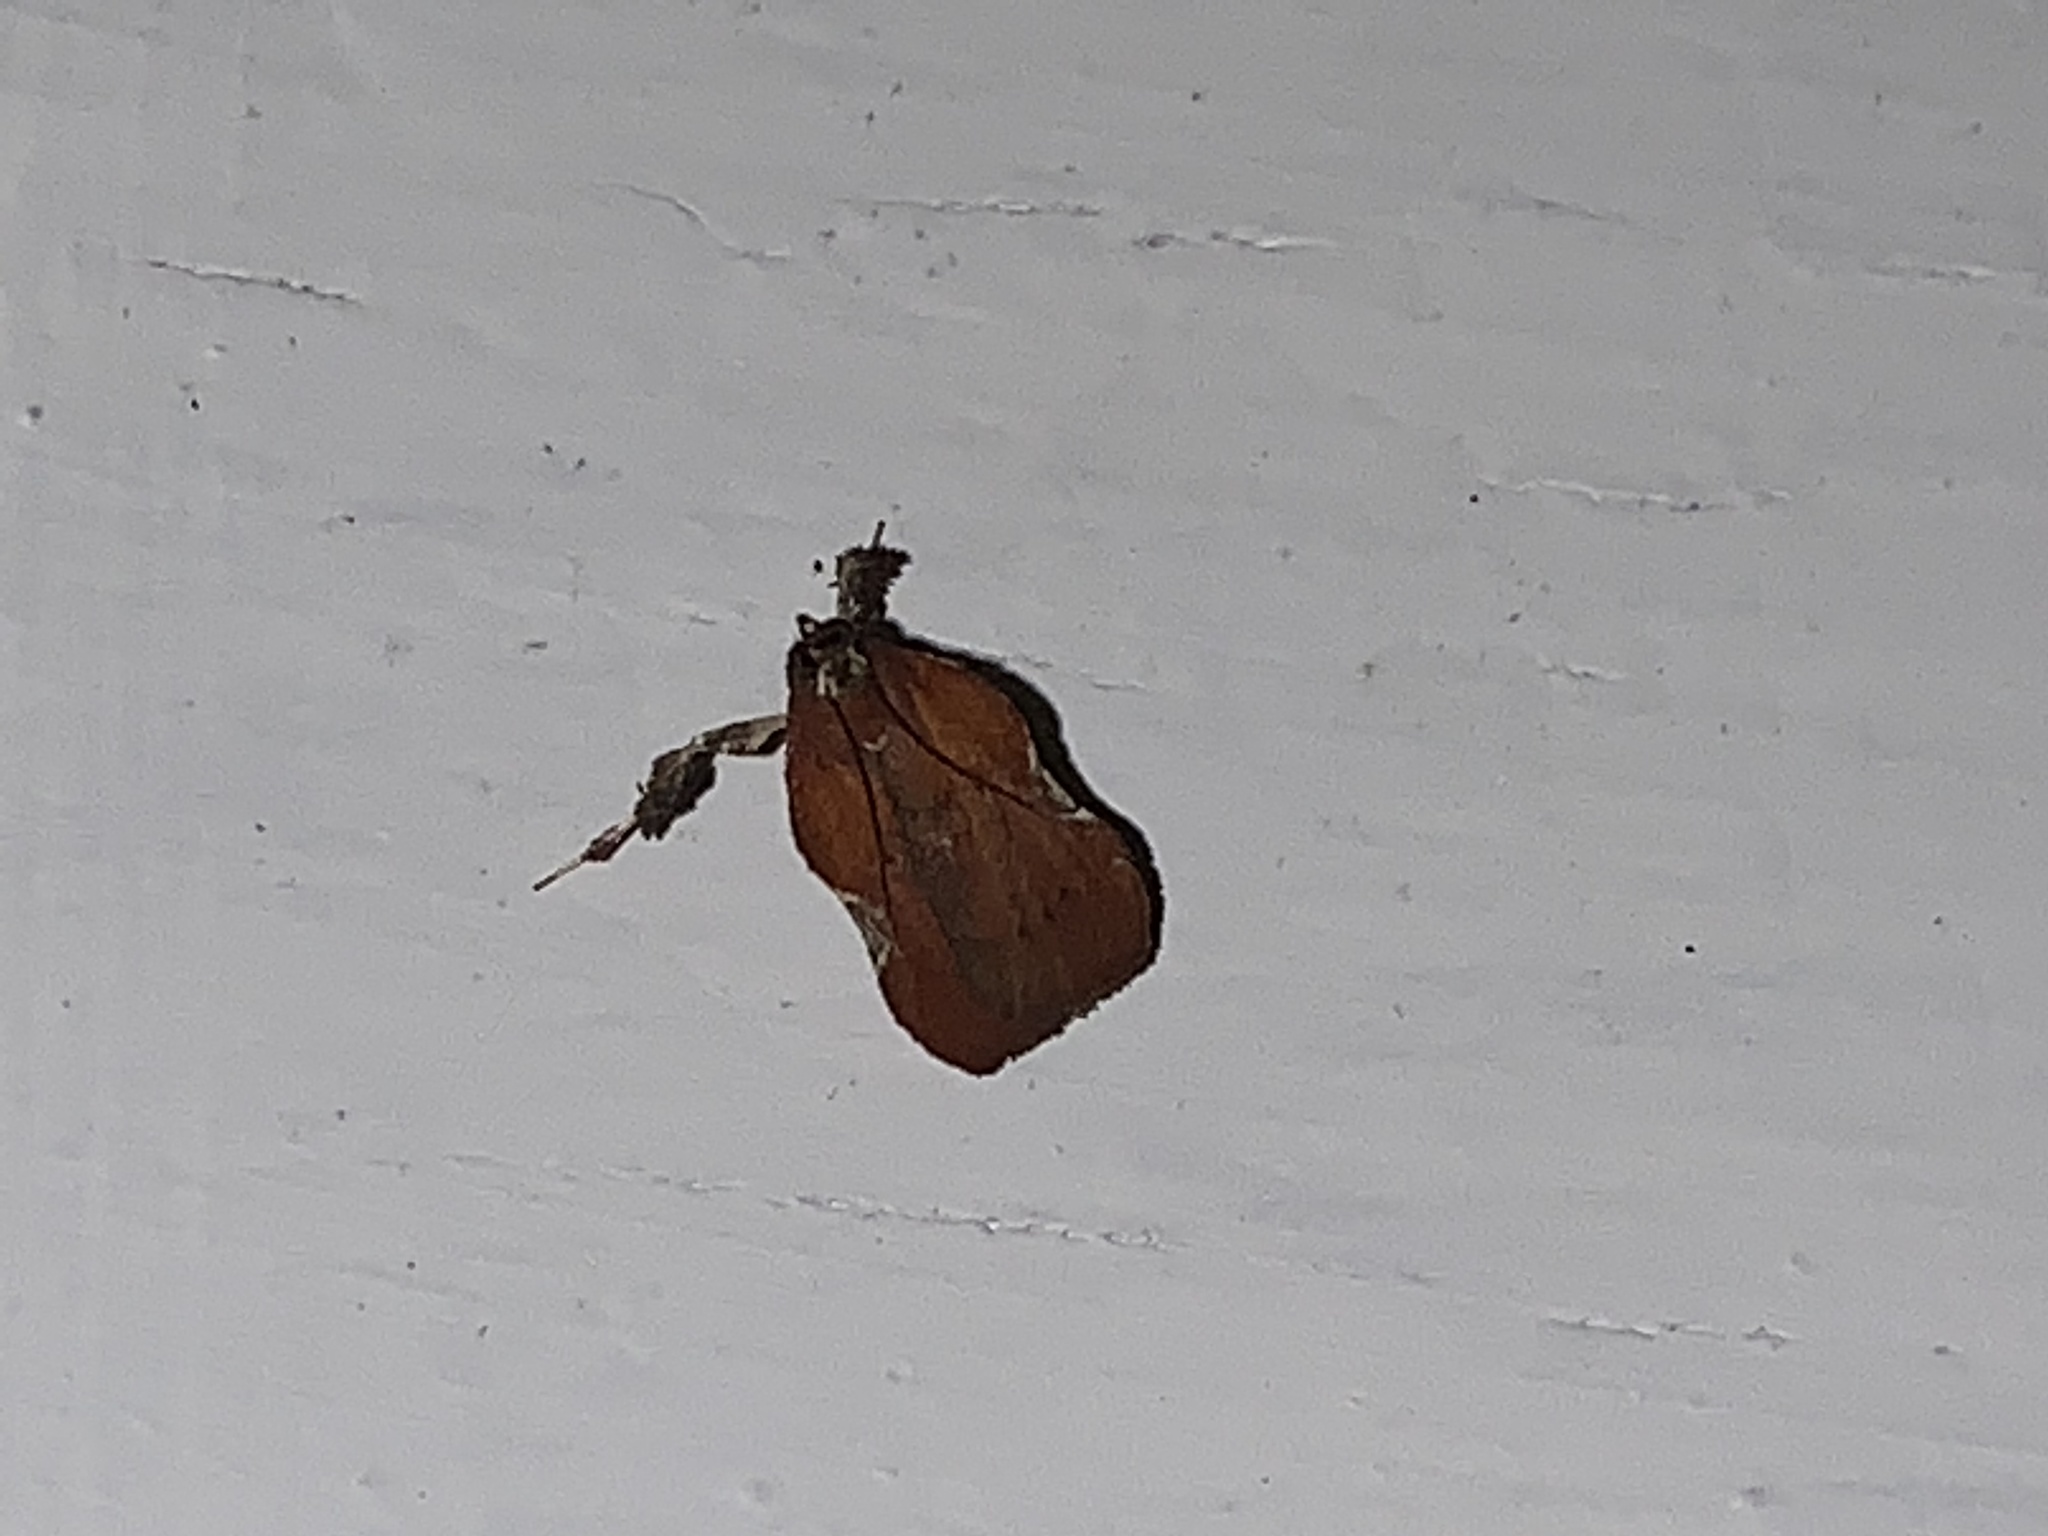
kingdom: Animalia
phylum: Arthropoda
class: Insecta
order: Lepidoptera
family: Pyralidae
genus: Galasa
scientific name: Galasa nigrinodis
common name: Boxwood leaftier moth
